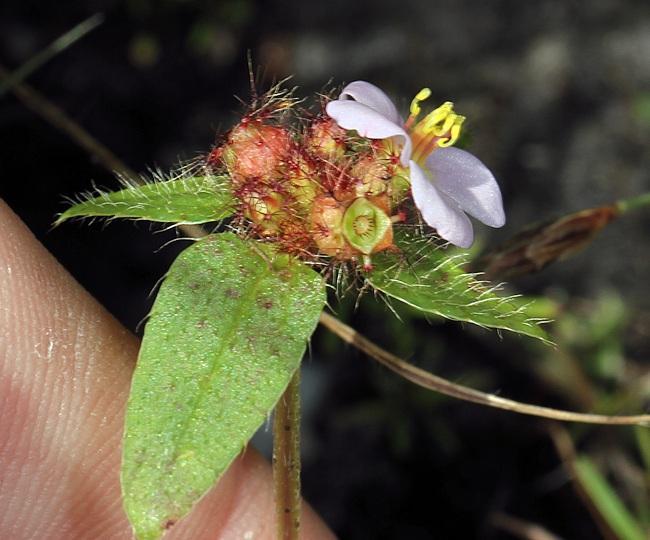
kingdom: Plantae
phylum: Tracheophyta
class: Magnoliopsida
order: Myrtales
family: Melastomataceae
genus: Antherotoma
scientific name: Antherotoma naudinii
